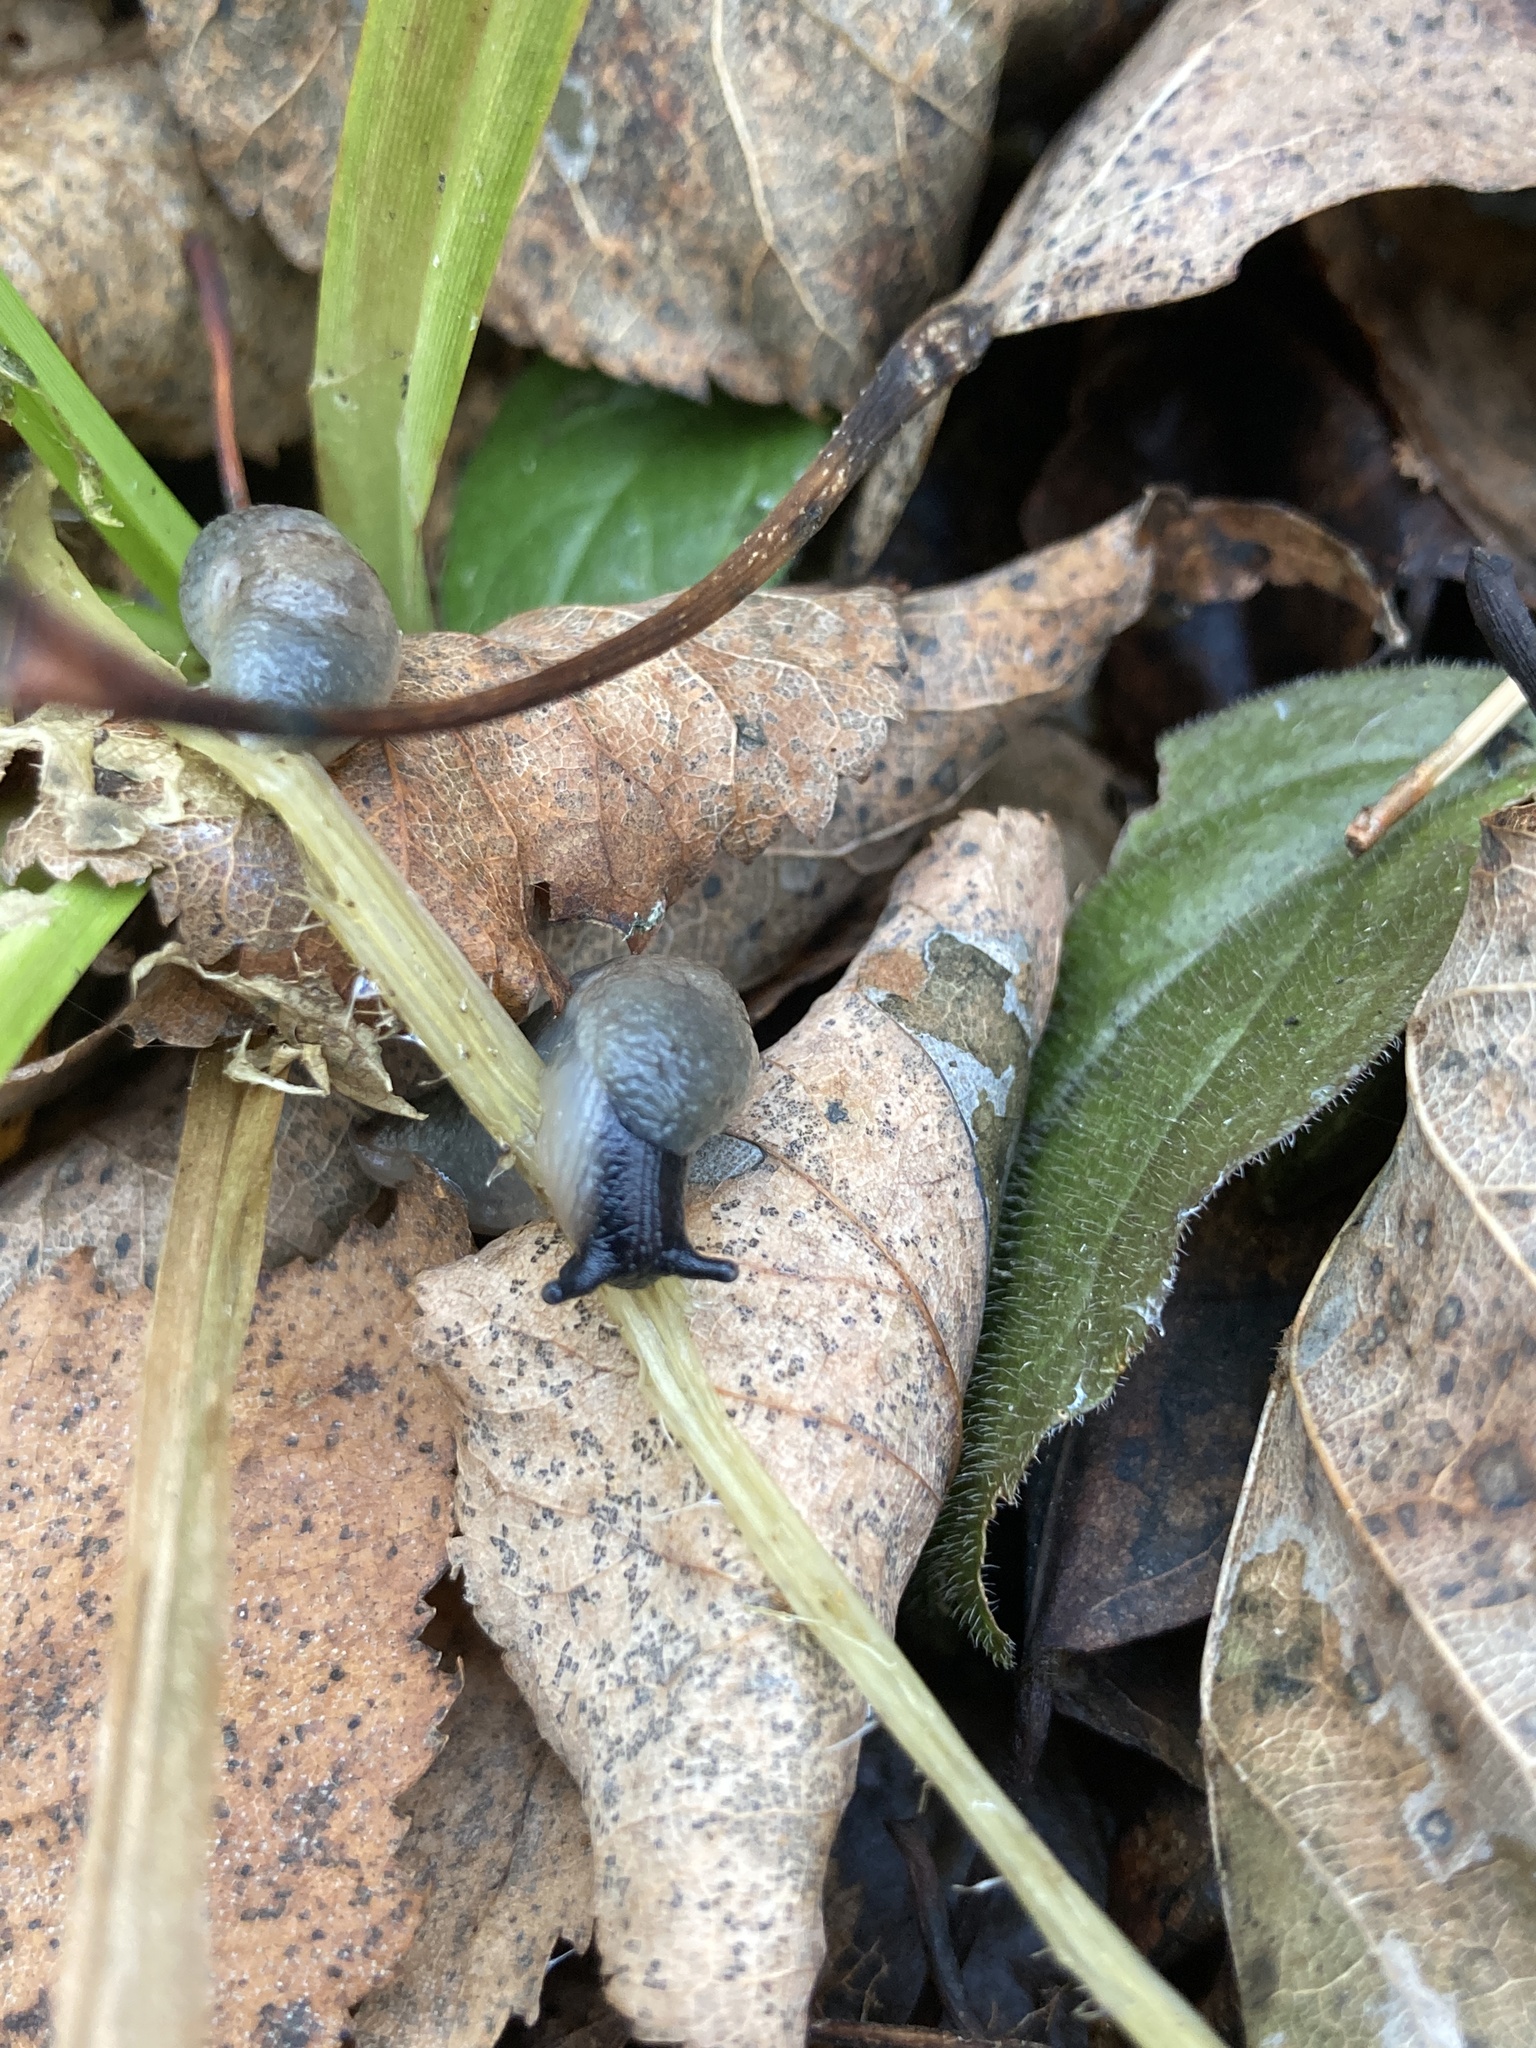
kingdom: Animalia
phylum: Mollusca
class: Gastropoda
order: Stylommatophora
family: Agriolimacidae
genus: Krynickillus
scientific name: Krynickillus melanocephalus
